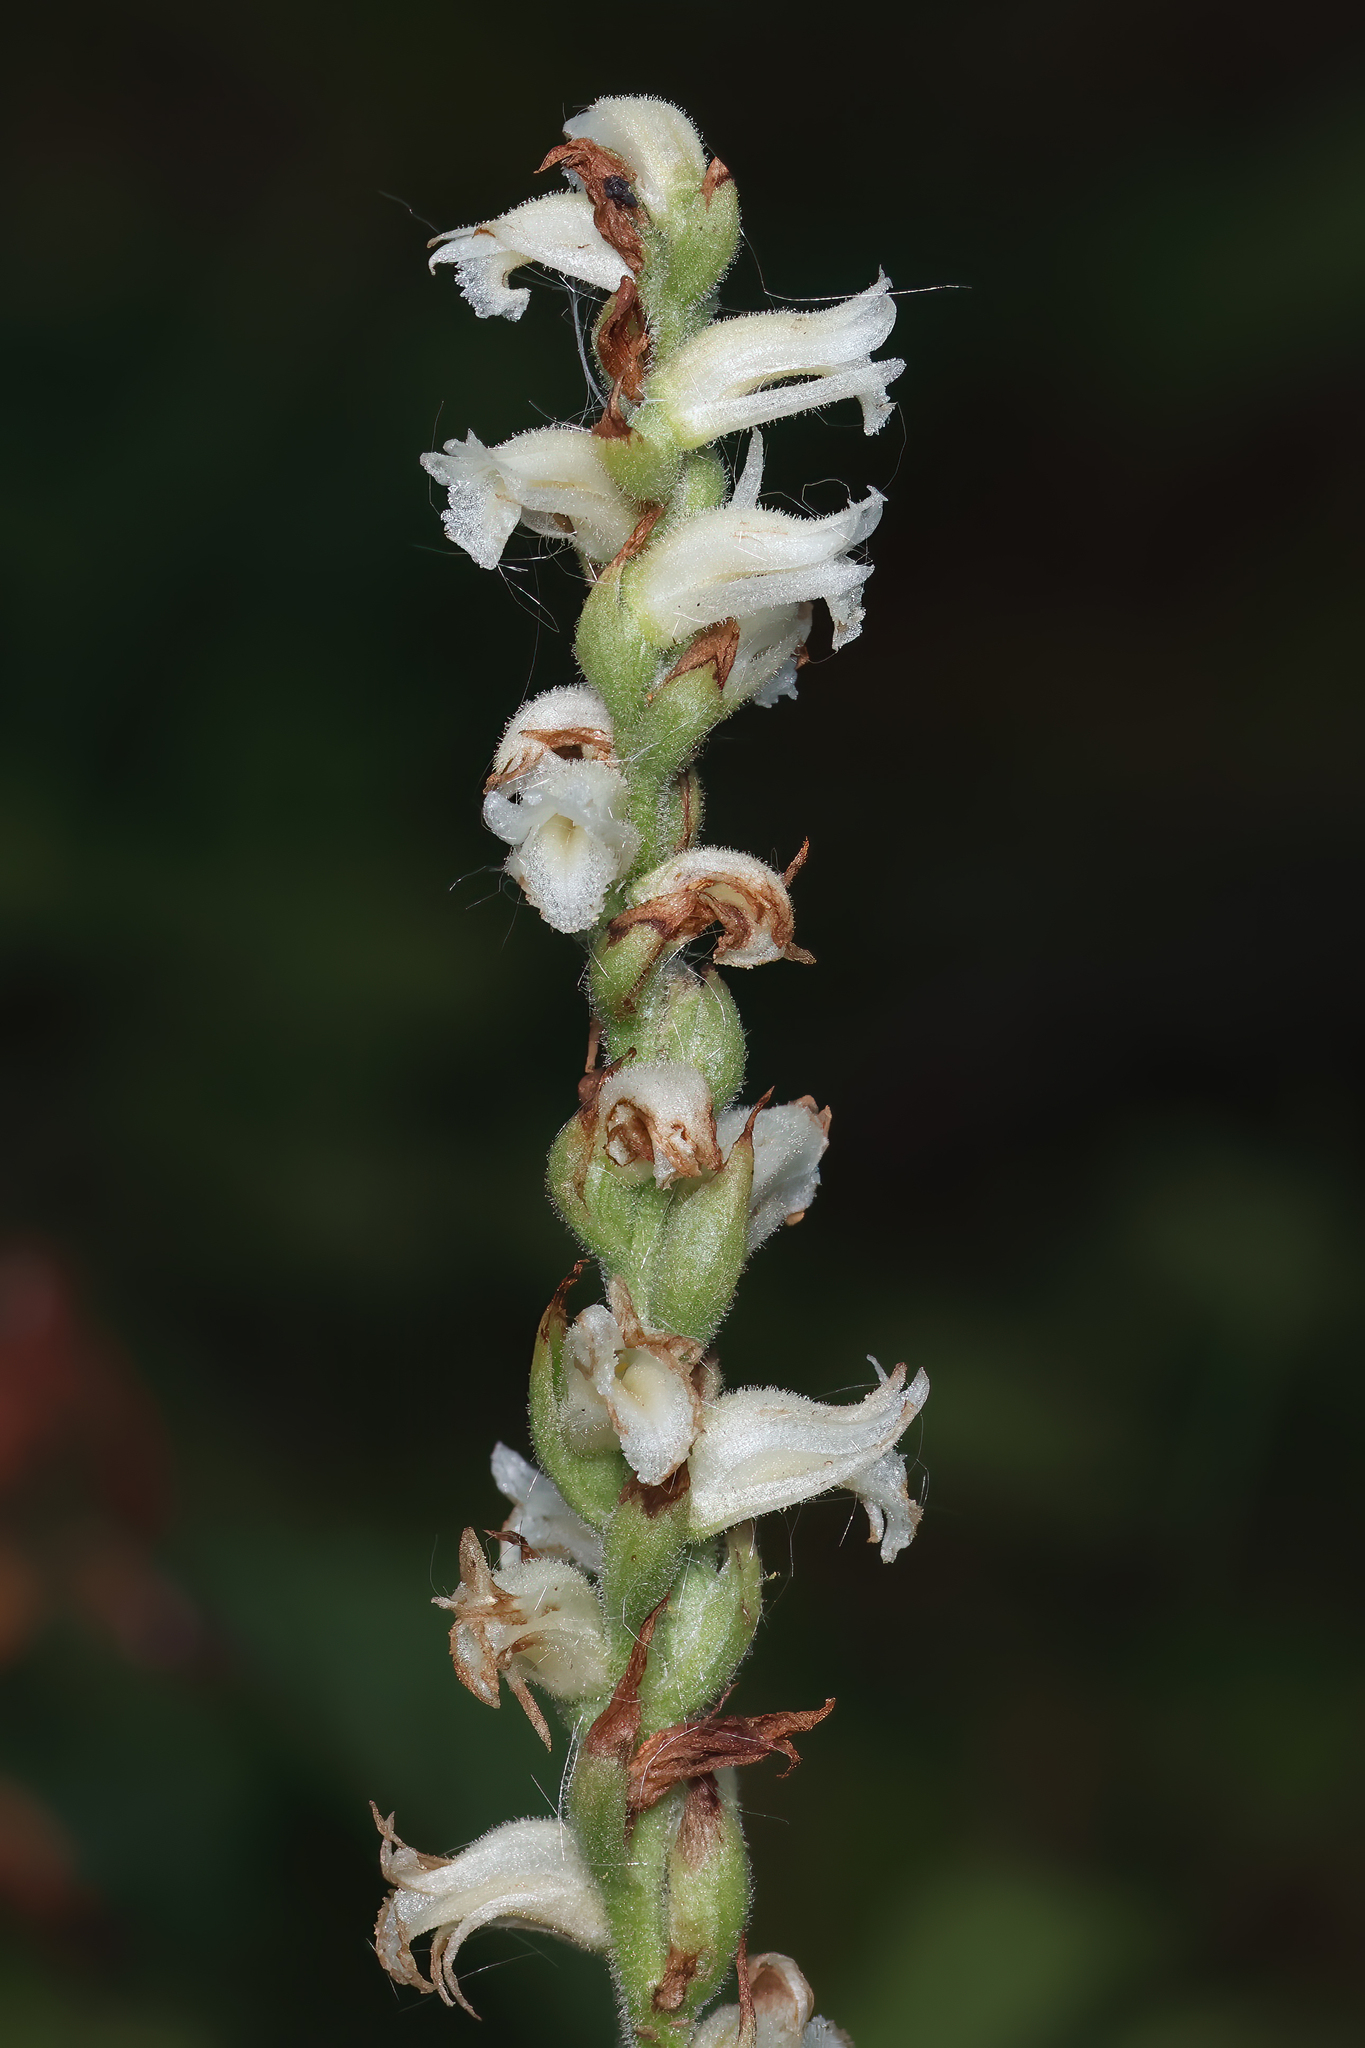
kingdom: Plantae
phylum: Tracheophyta
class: Liliopsida
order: Asparagales
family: Orchidaceae
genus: Spiranthes
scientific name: Spiranthes ochroleuca
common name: Yellow ladies'-tresses
